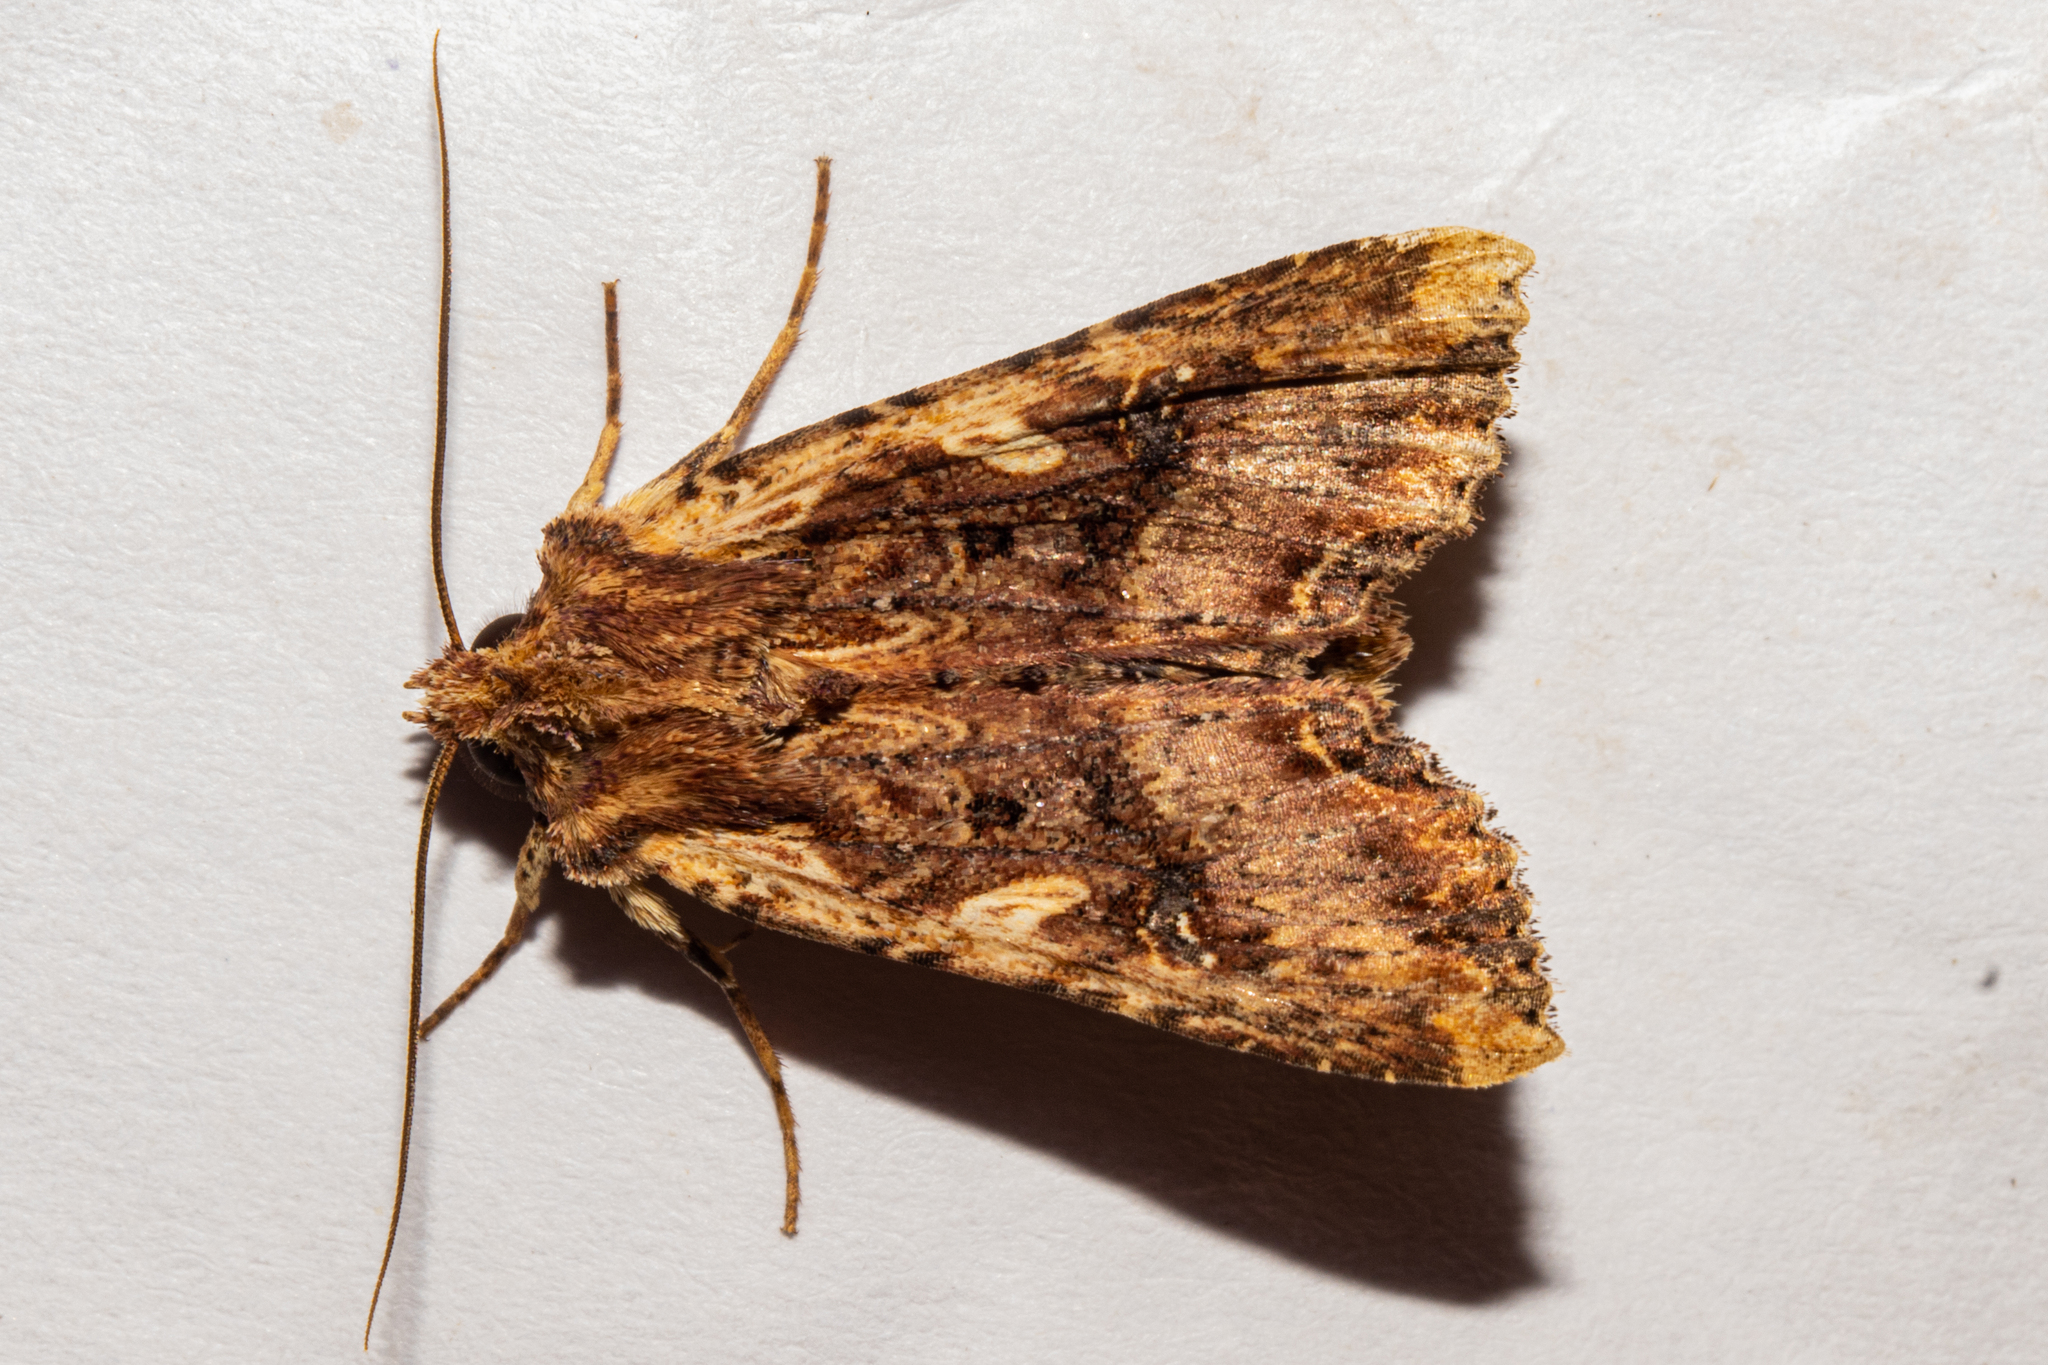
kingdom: Animalia
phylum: Arthropoda
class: Insecta
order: Lepidoptera
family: Noctuidae
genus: Meterana
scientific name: Meterana stipata
